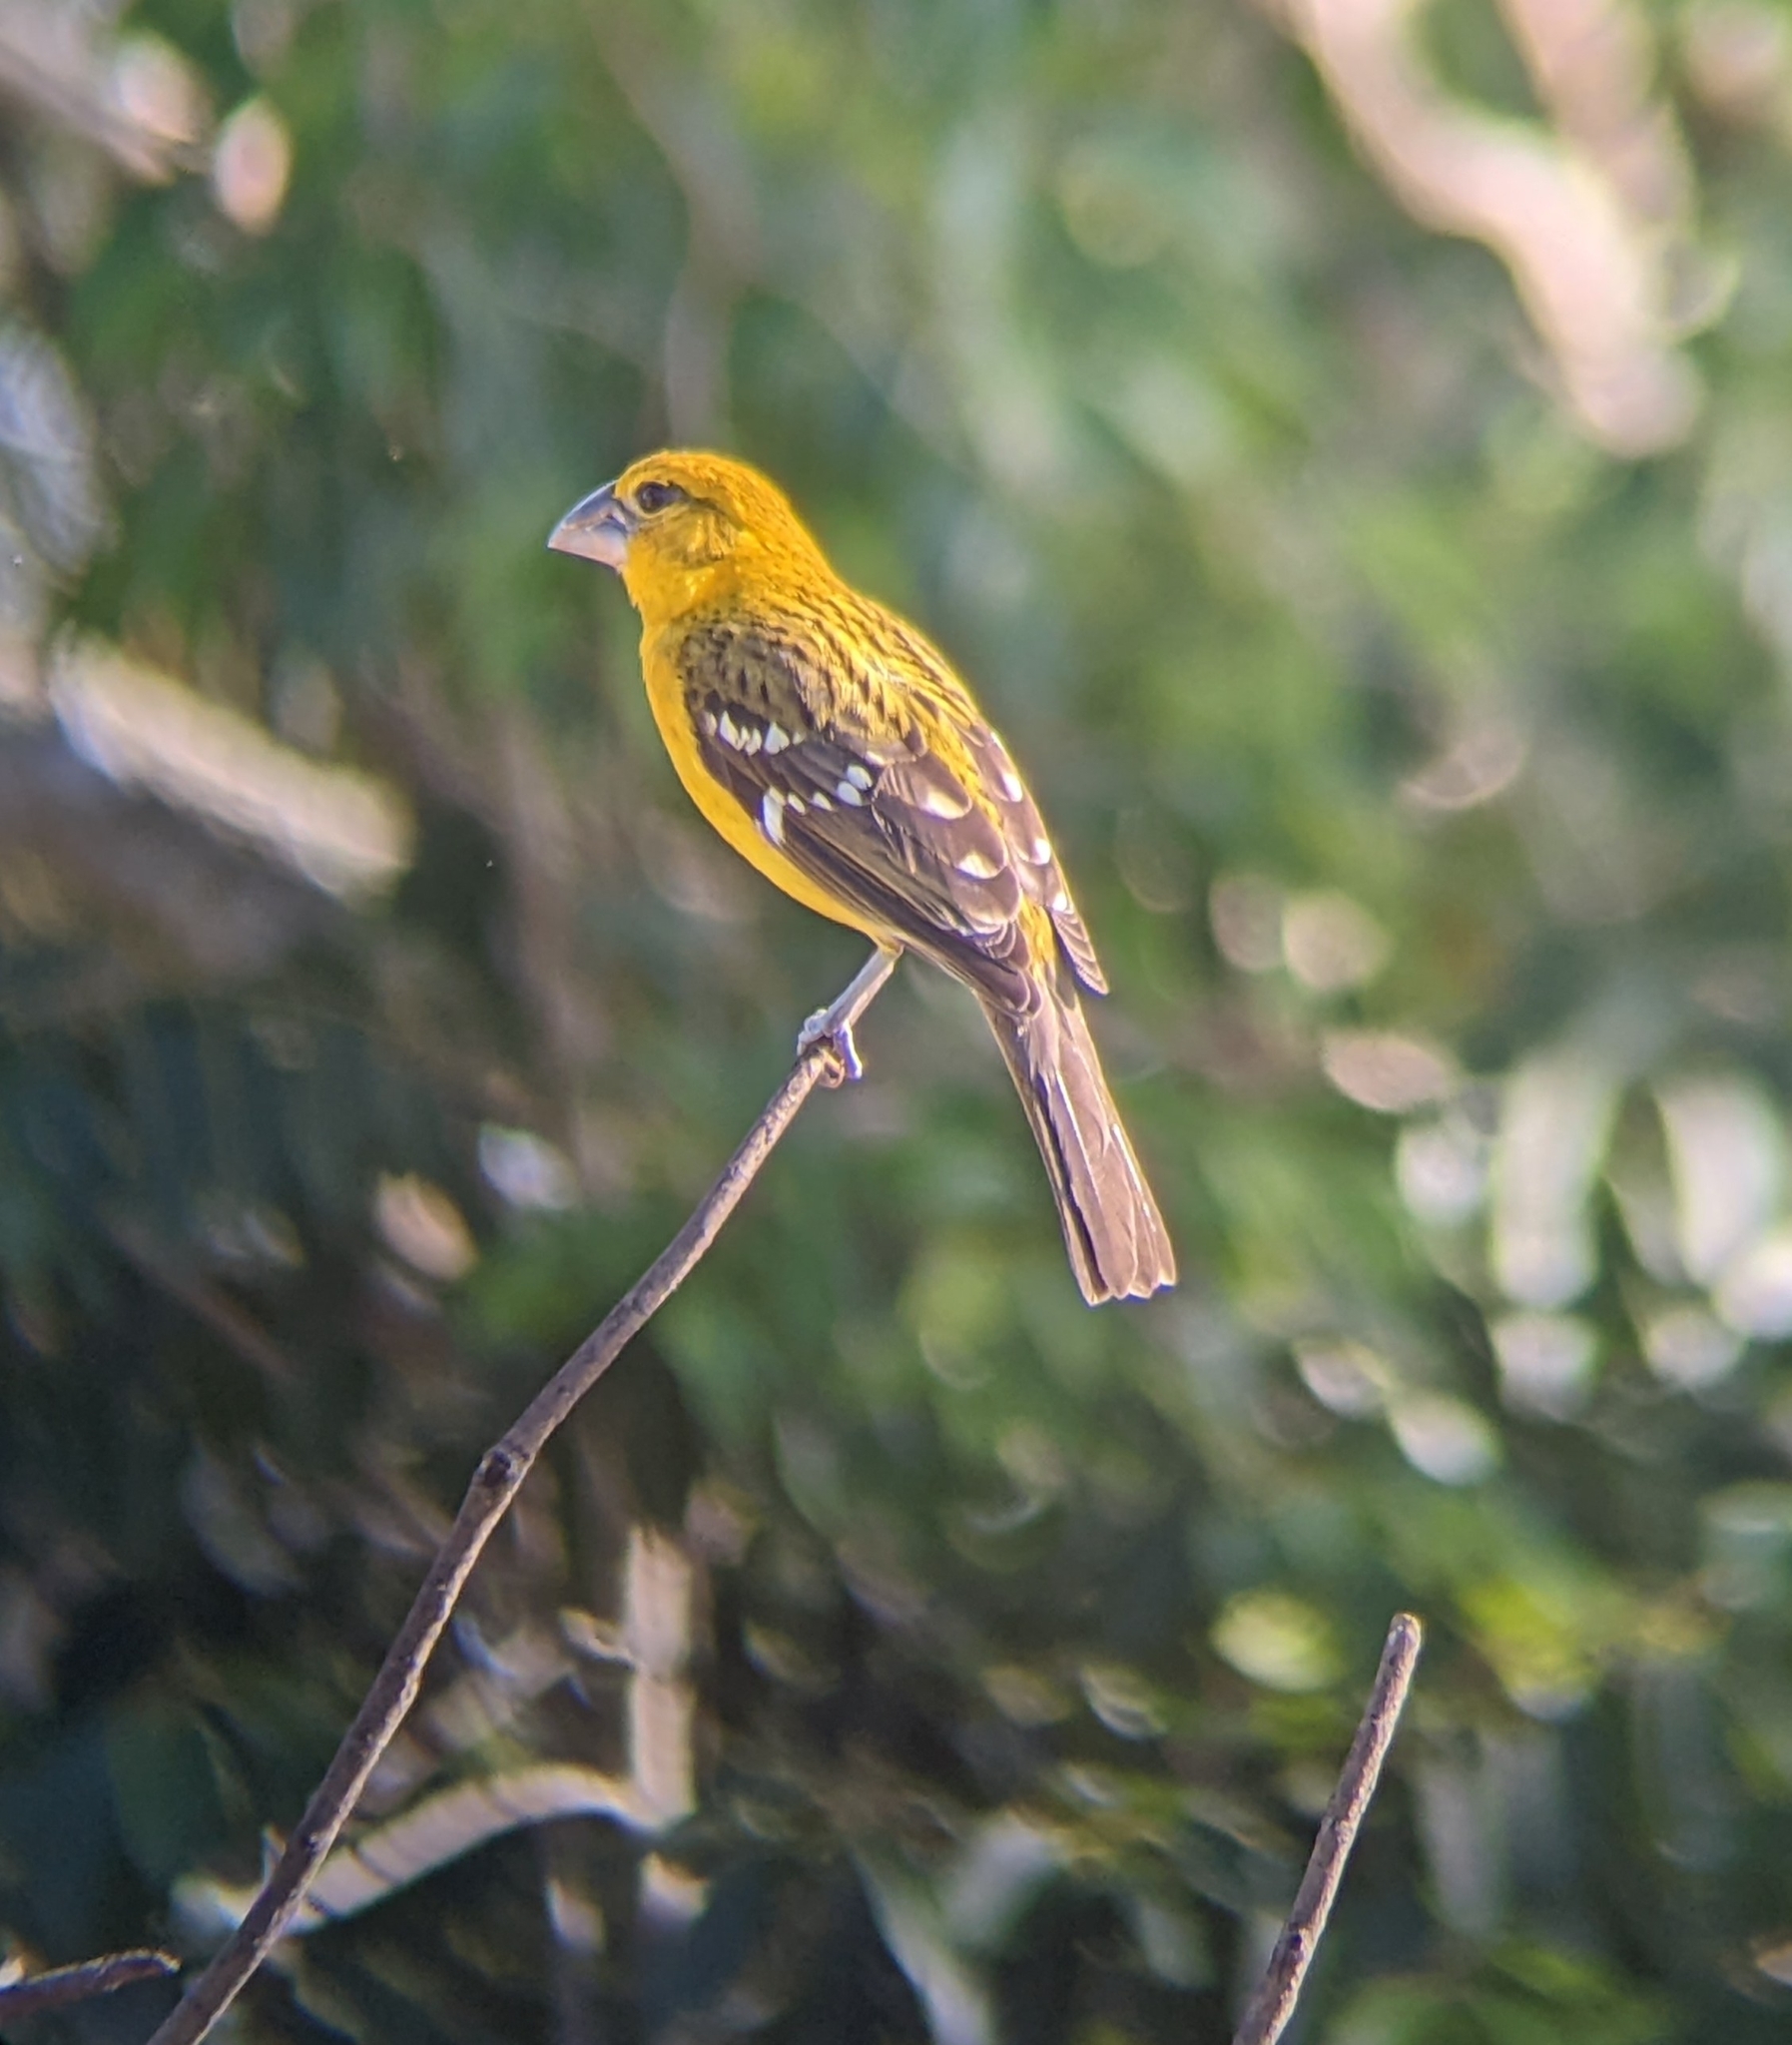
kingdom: Animalia
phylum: Chordata
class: Aves
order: Passeriformes
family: Cardinalidae
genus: Pheucticus
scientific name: Pheucticus chrysopeplus
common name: Yellow grosbeak
